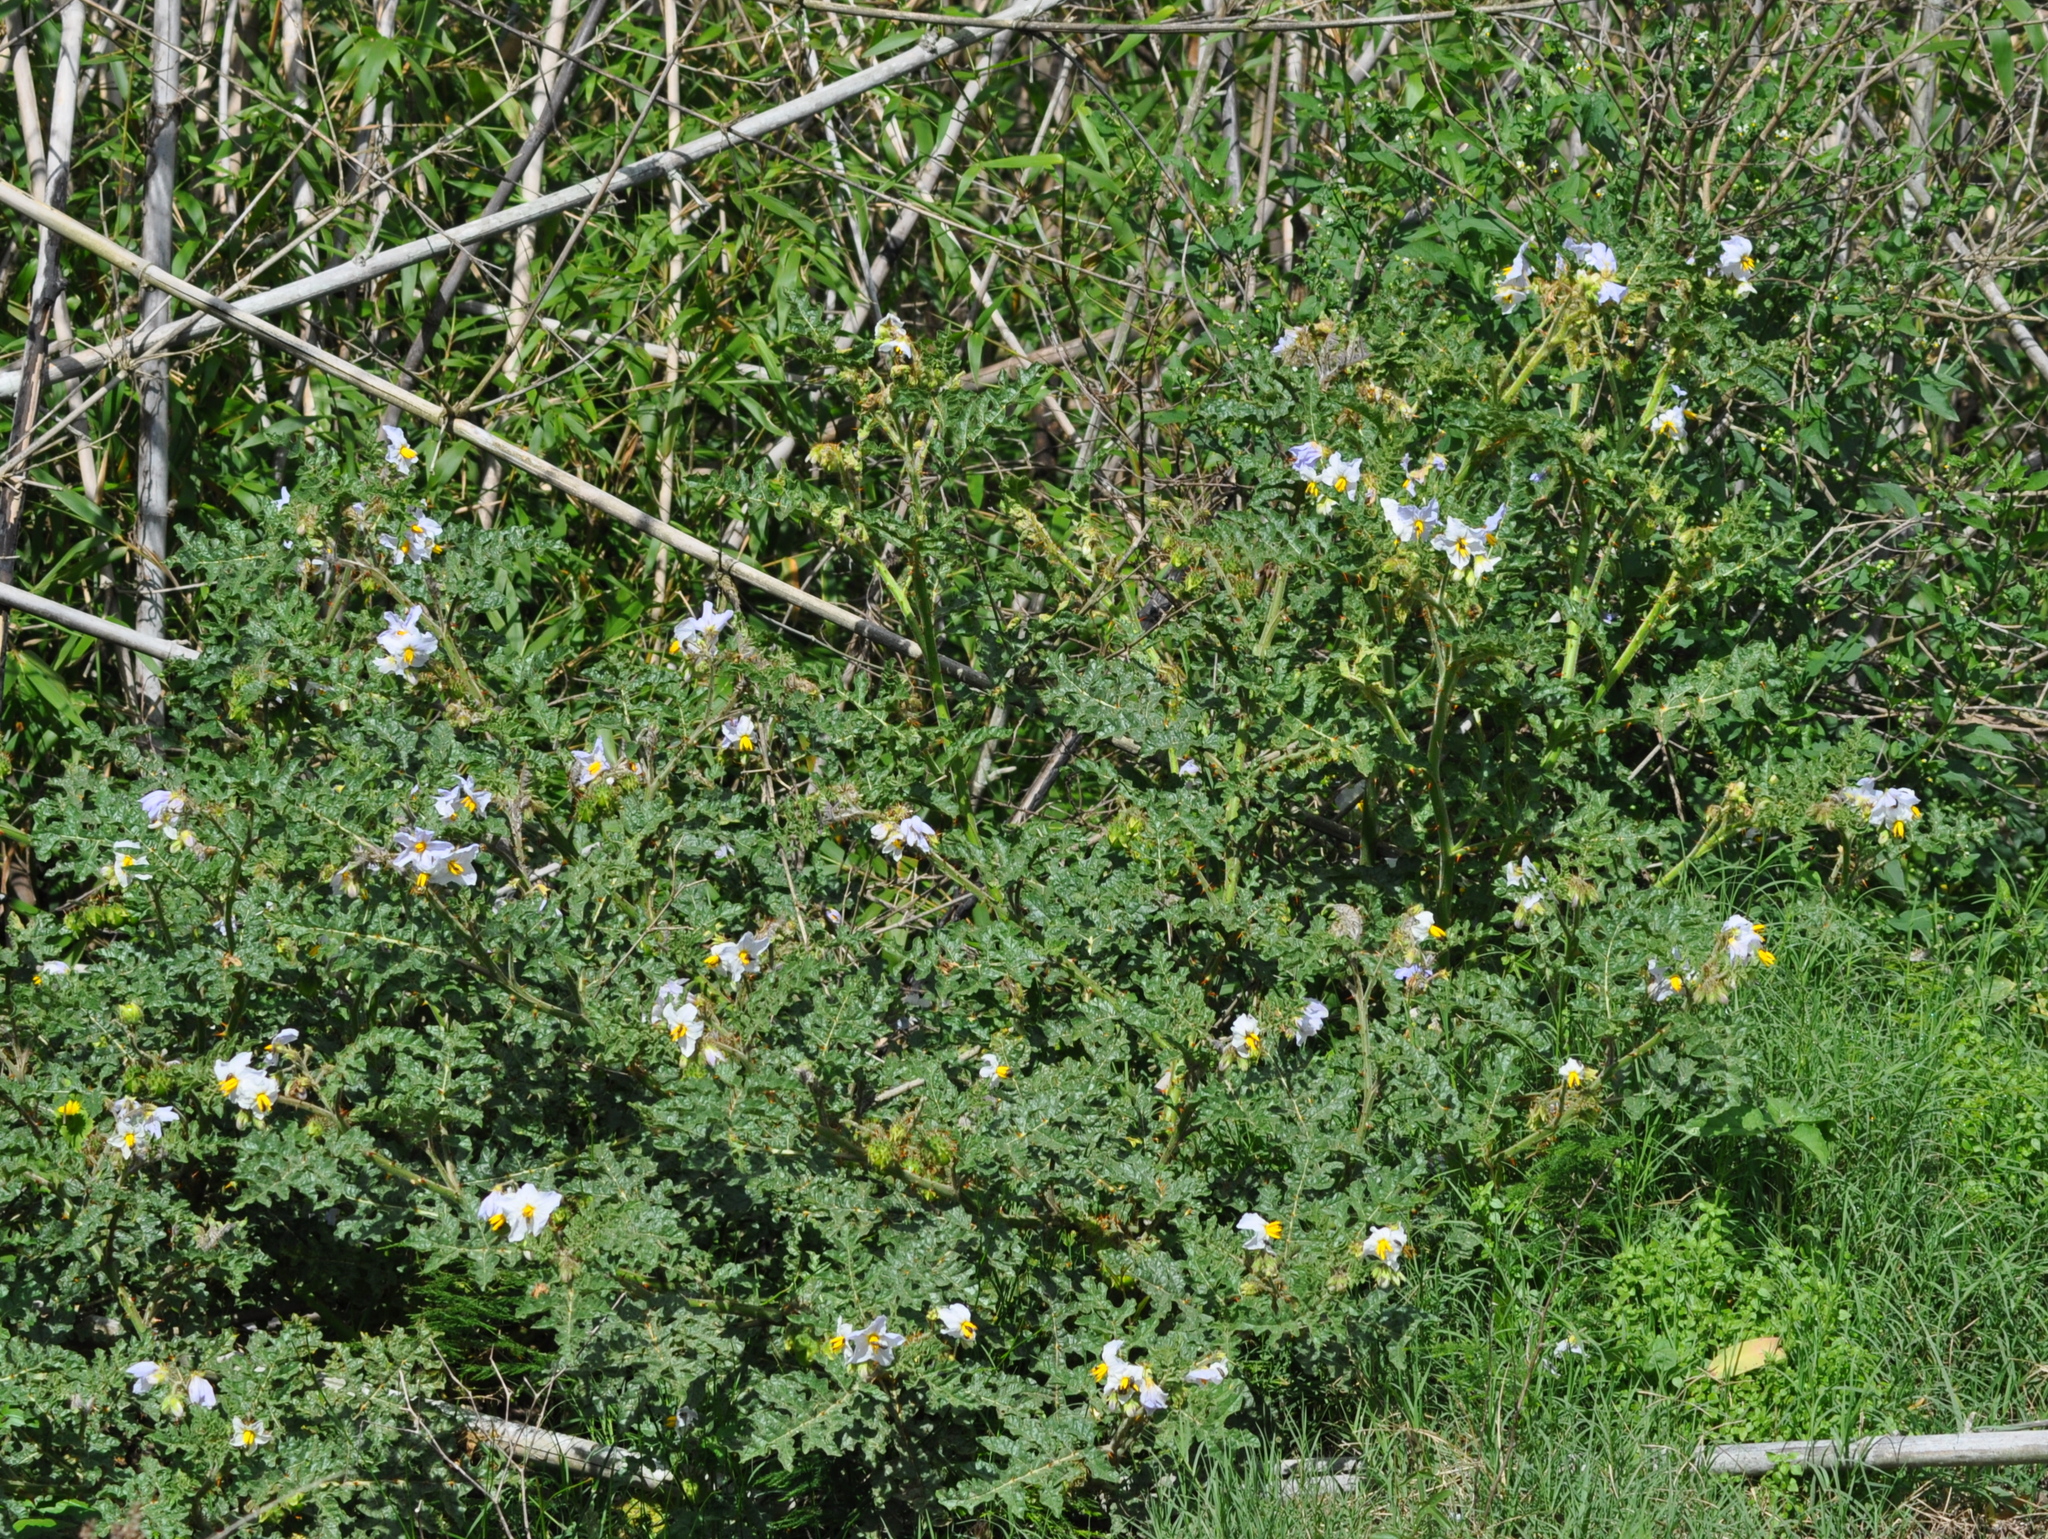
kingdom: Plantae
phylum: Tracheophyta
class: Magnoliopsida
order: Solanales
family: Solanaceae
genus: Solanum
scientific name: Solanum sisymbriifolium
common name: Red buffalo-bur
